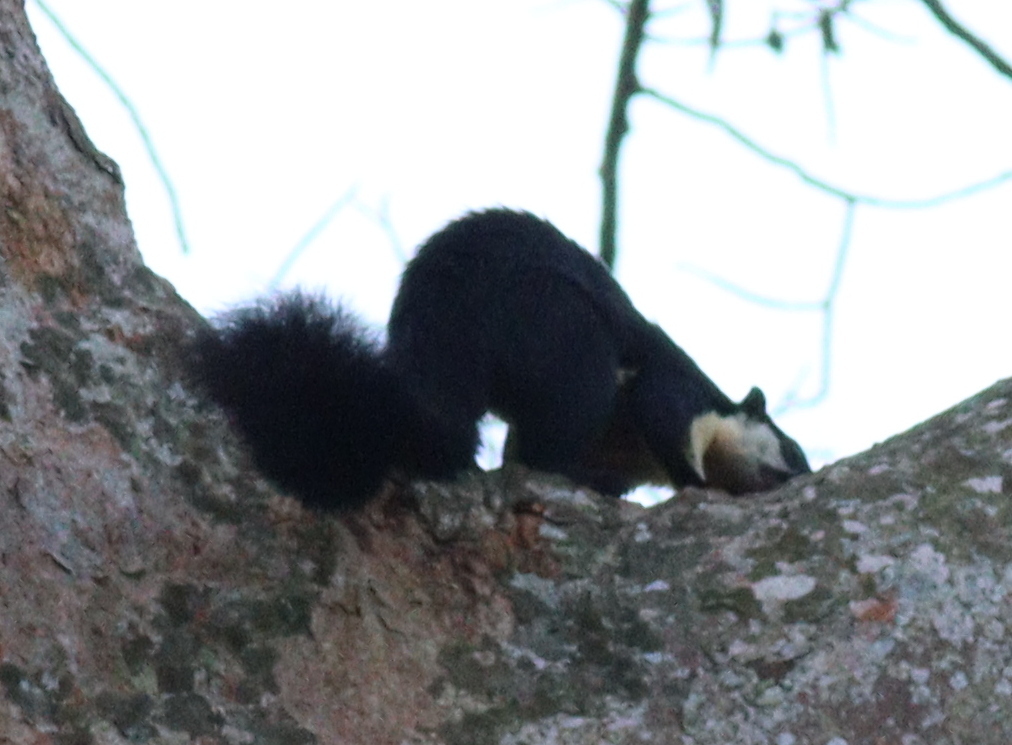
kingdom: Animalia
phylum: Chordata
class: Mammalia
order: Rodentia
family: Sciuridae
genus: Ratufa
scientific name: Ratufa bicolor
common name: Black giant squirrel
